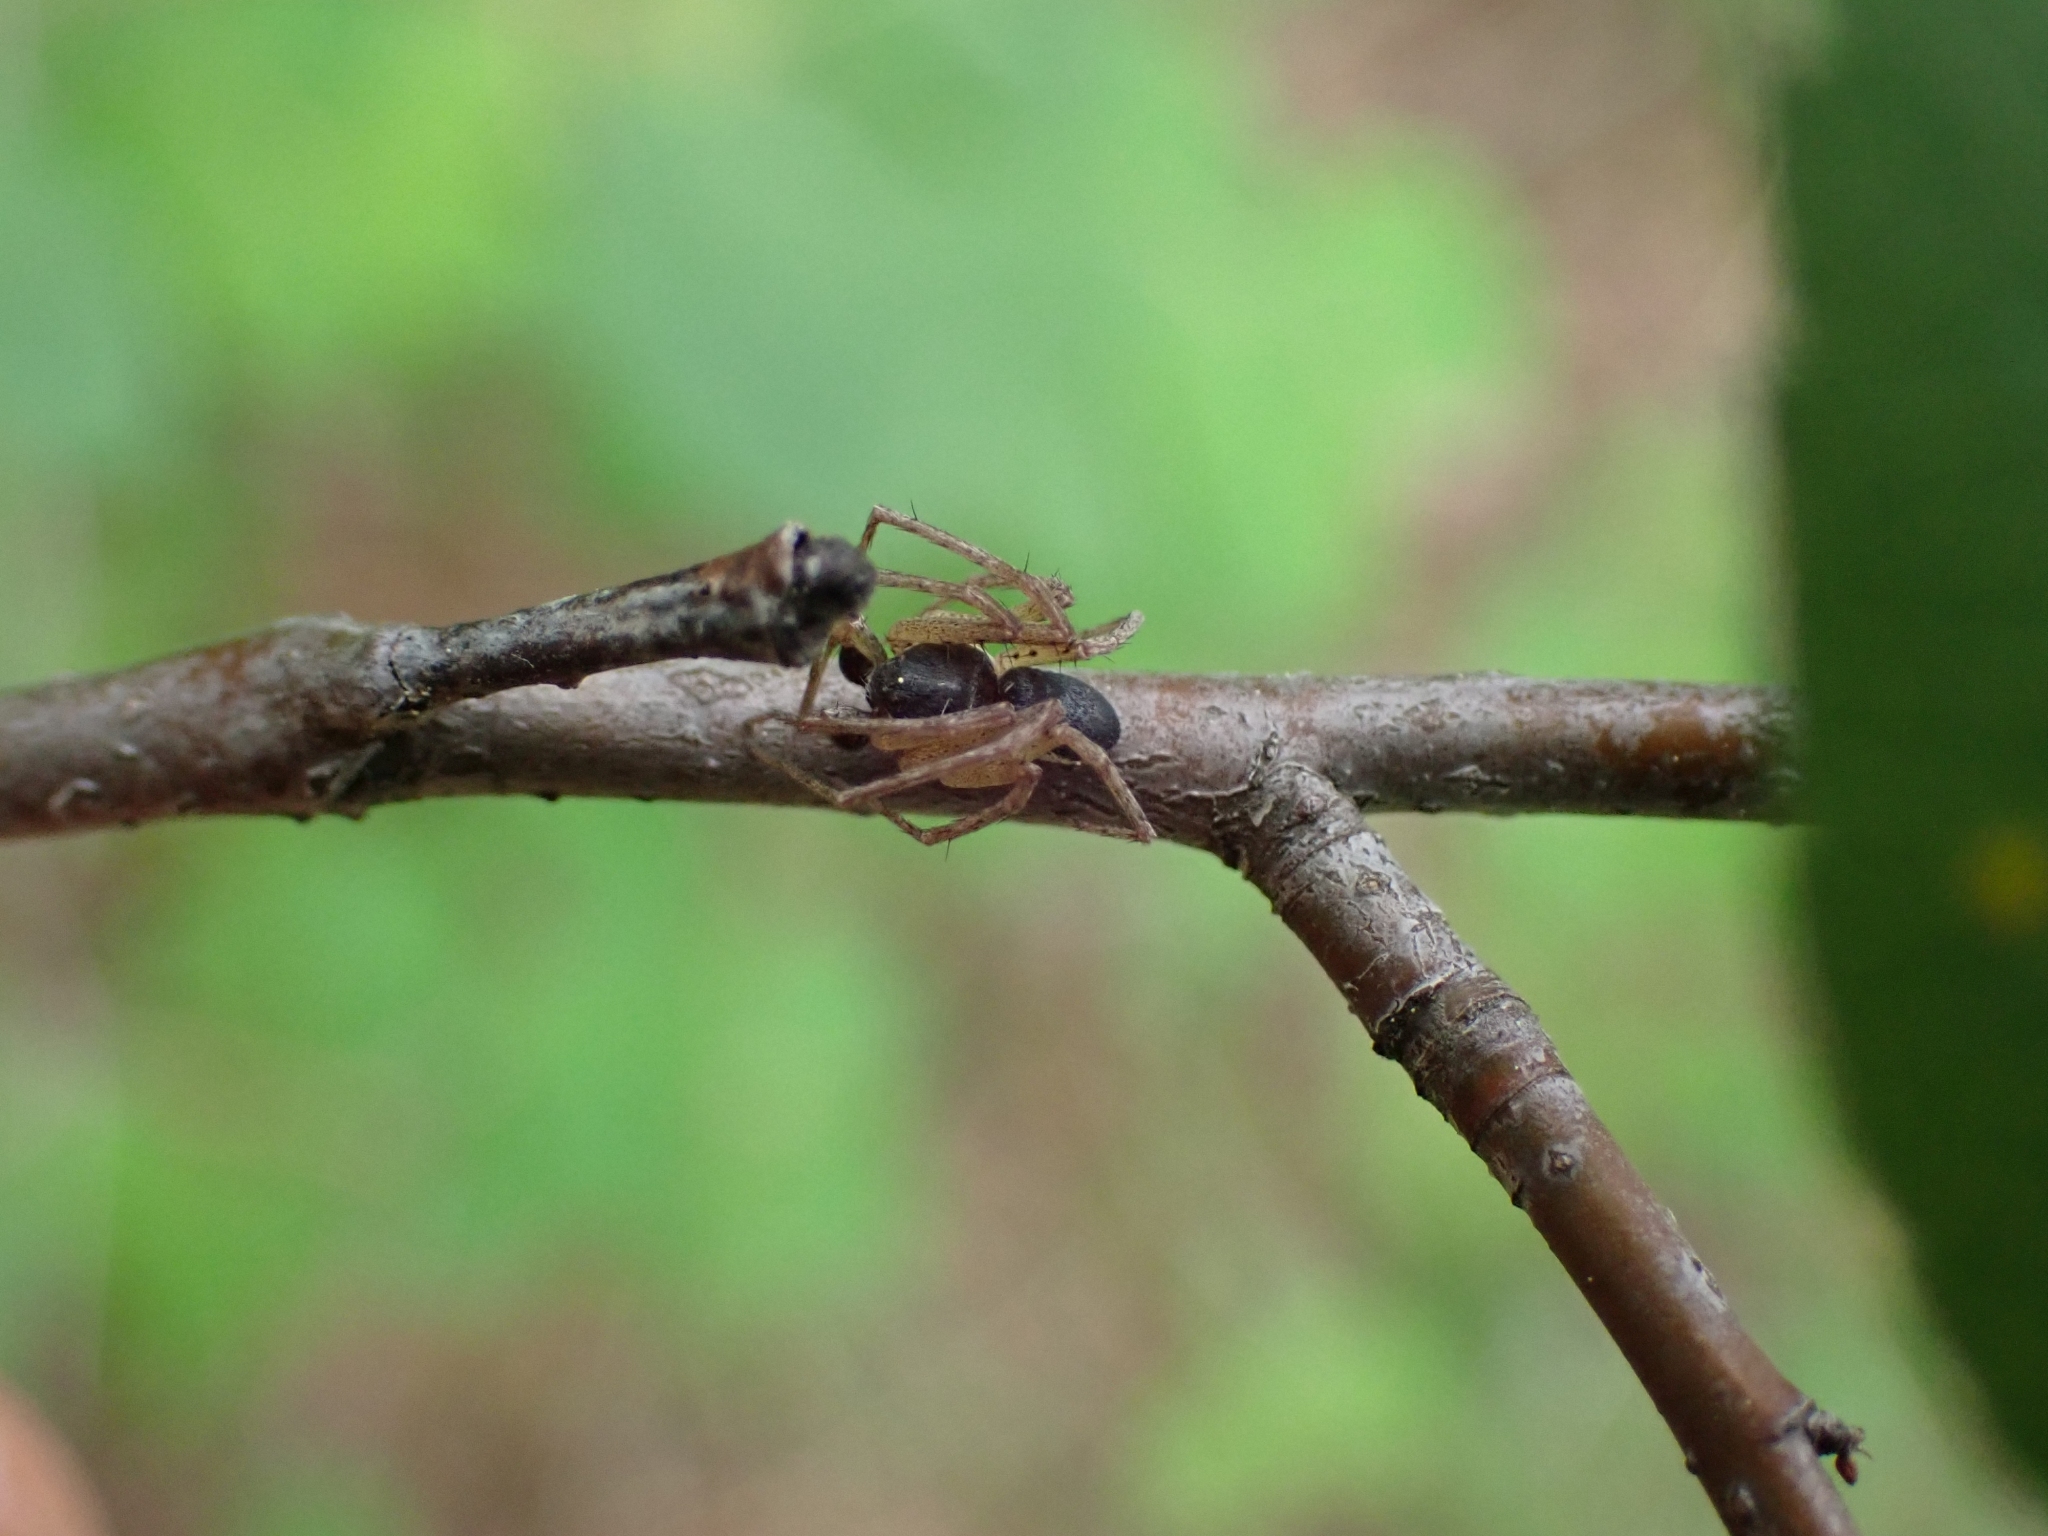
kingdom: Animalia
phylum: Arthropoda
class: Arachnida
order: Araneae
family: Philodromidae
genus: Philodromus
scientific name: Philodromus dispar
